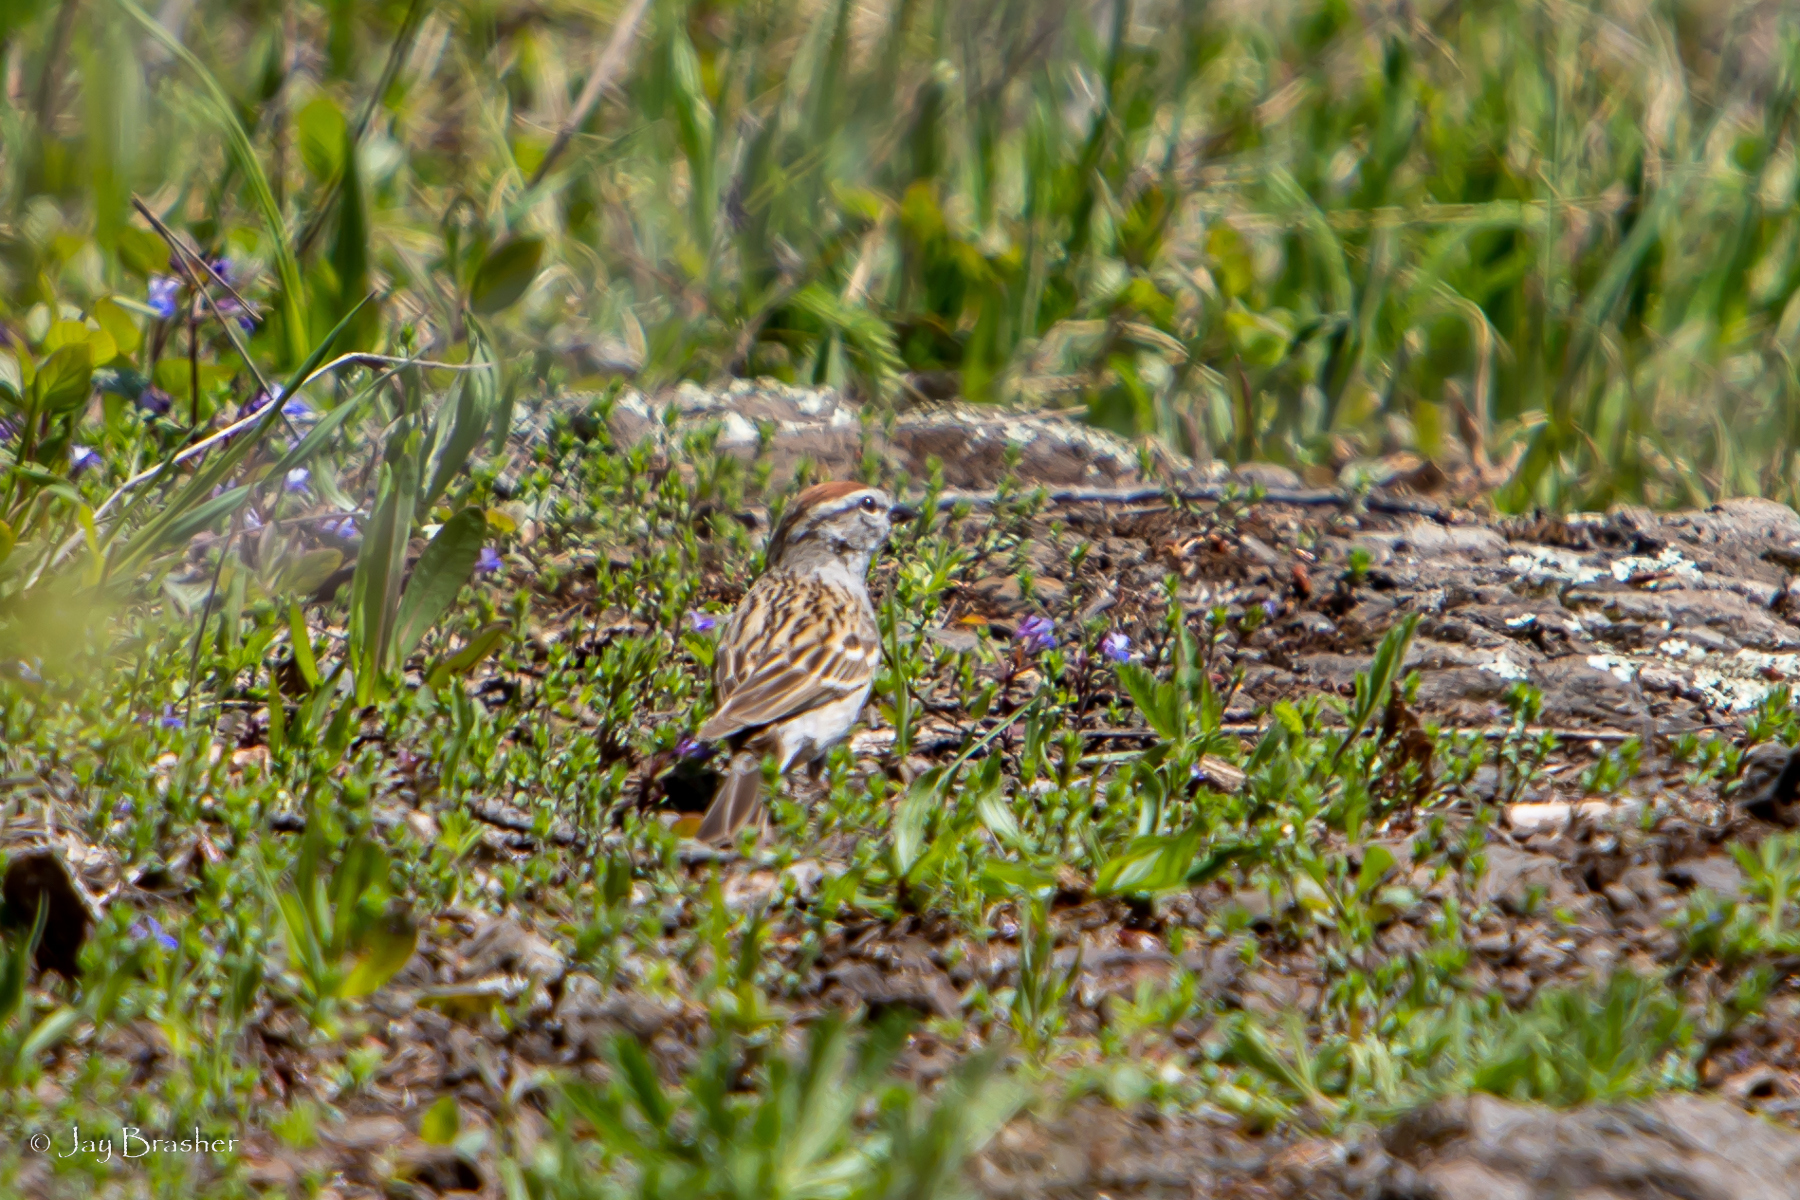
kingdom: Animalia
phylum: Chordata
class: Aves
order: Passeriformes
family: Passerellidae
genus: Spizella
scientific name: Spizella passerina
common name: Chipping sparrow
